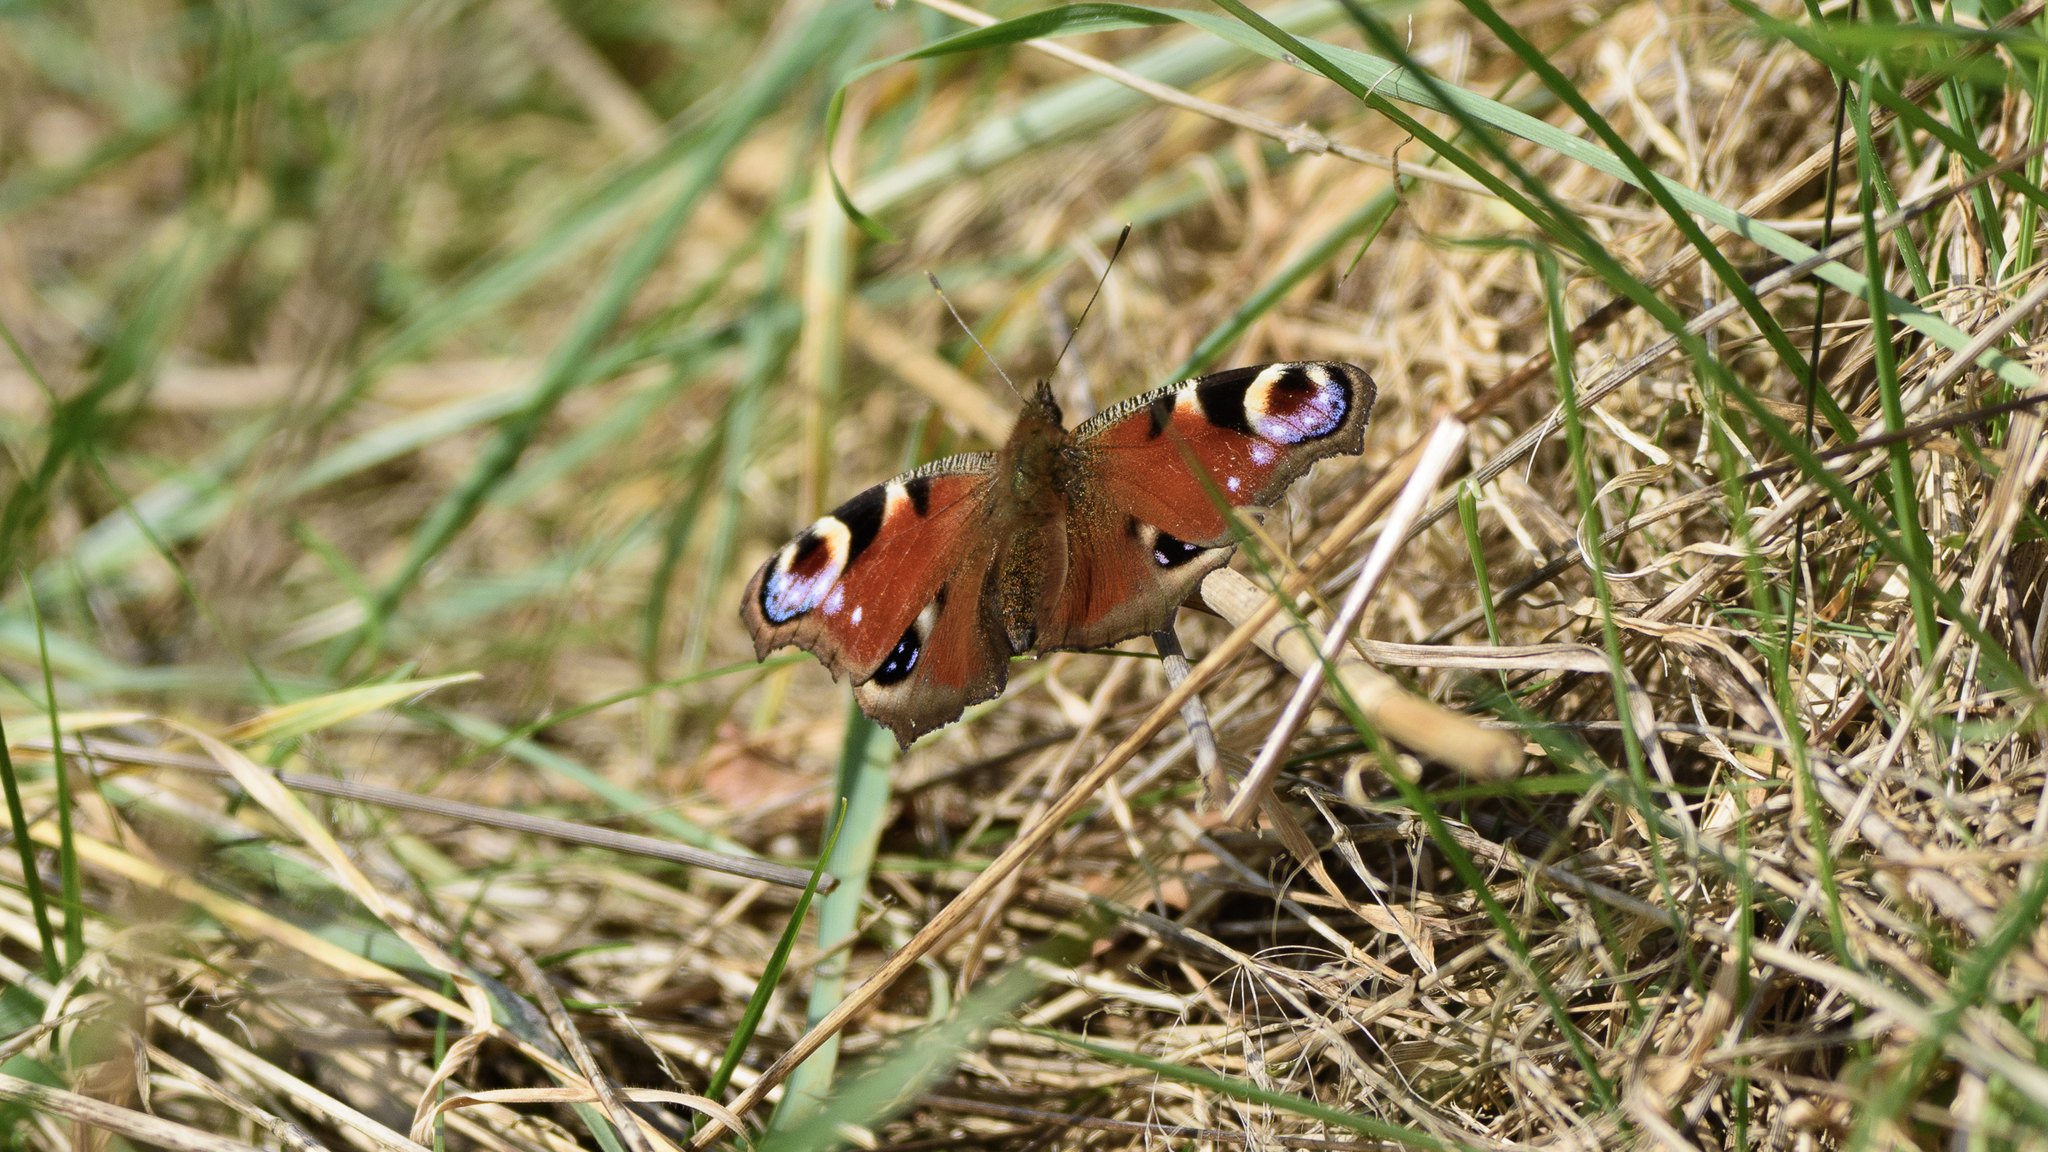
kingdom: Animalia
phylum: Arthropoda
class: Insecta
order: Lepidoptera
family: Nymphalidae
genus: Aglais
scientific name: Aglais io
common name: Peacock
